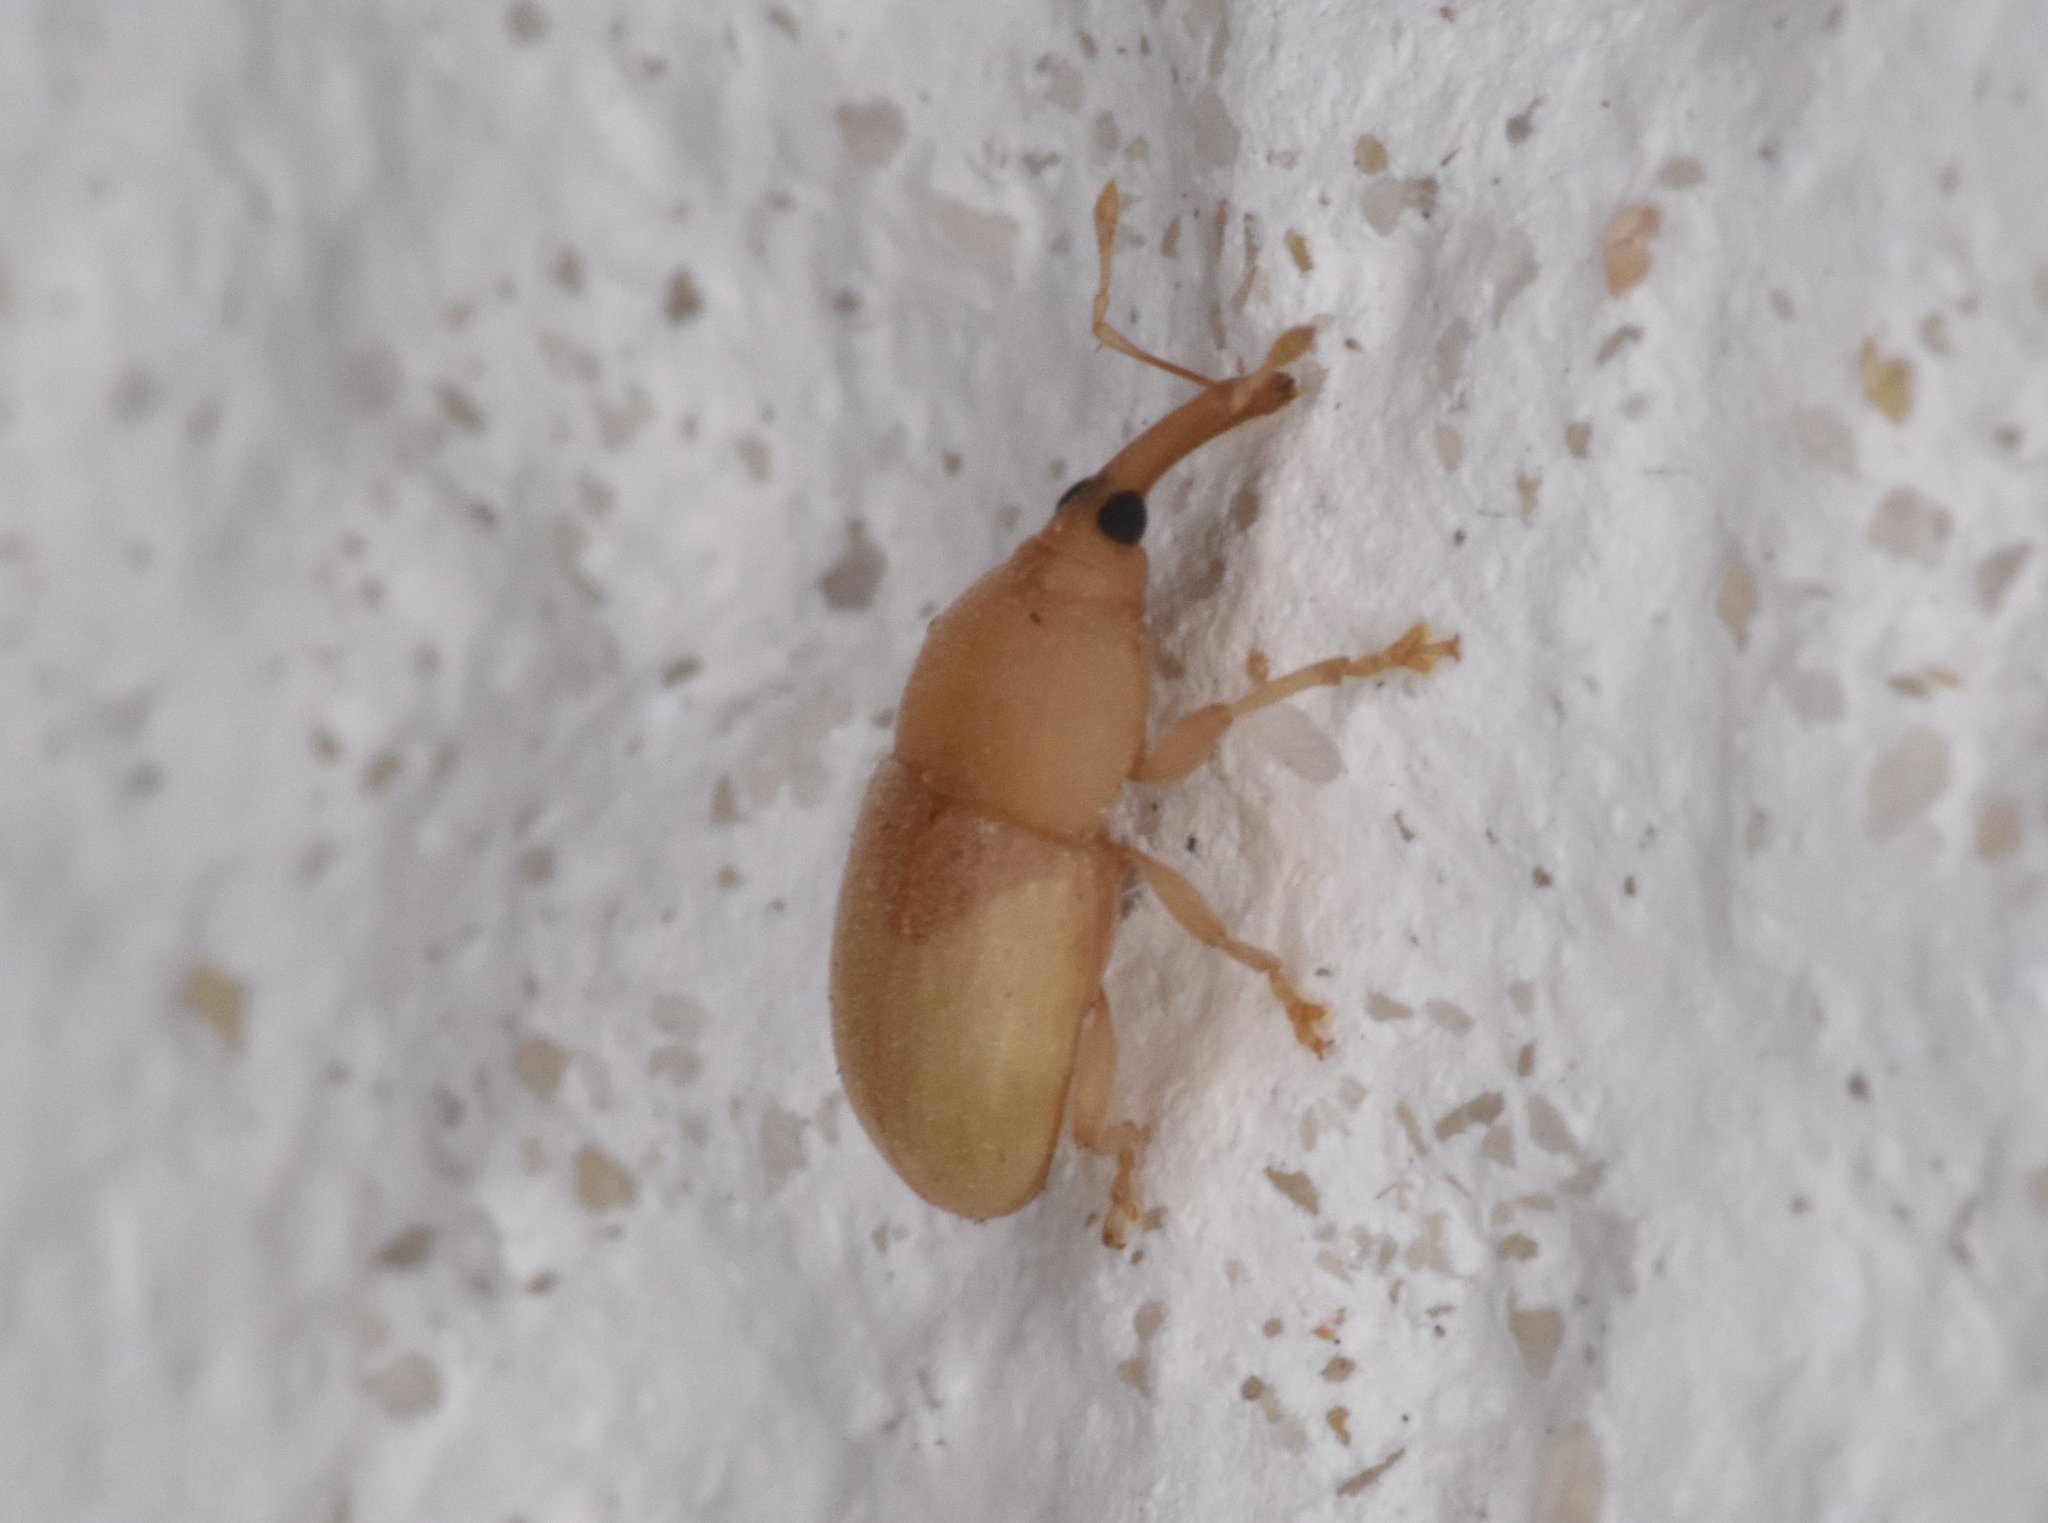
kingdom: Animalia
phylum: Arthropoda
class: Insecta
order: Coleoptera
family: Curculionidae
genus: Notolomus
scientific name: Notolomus basalis
